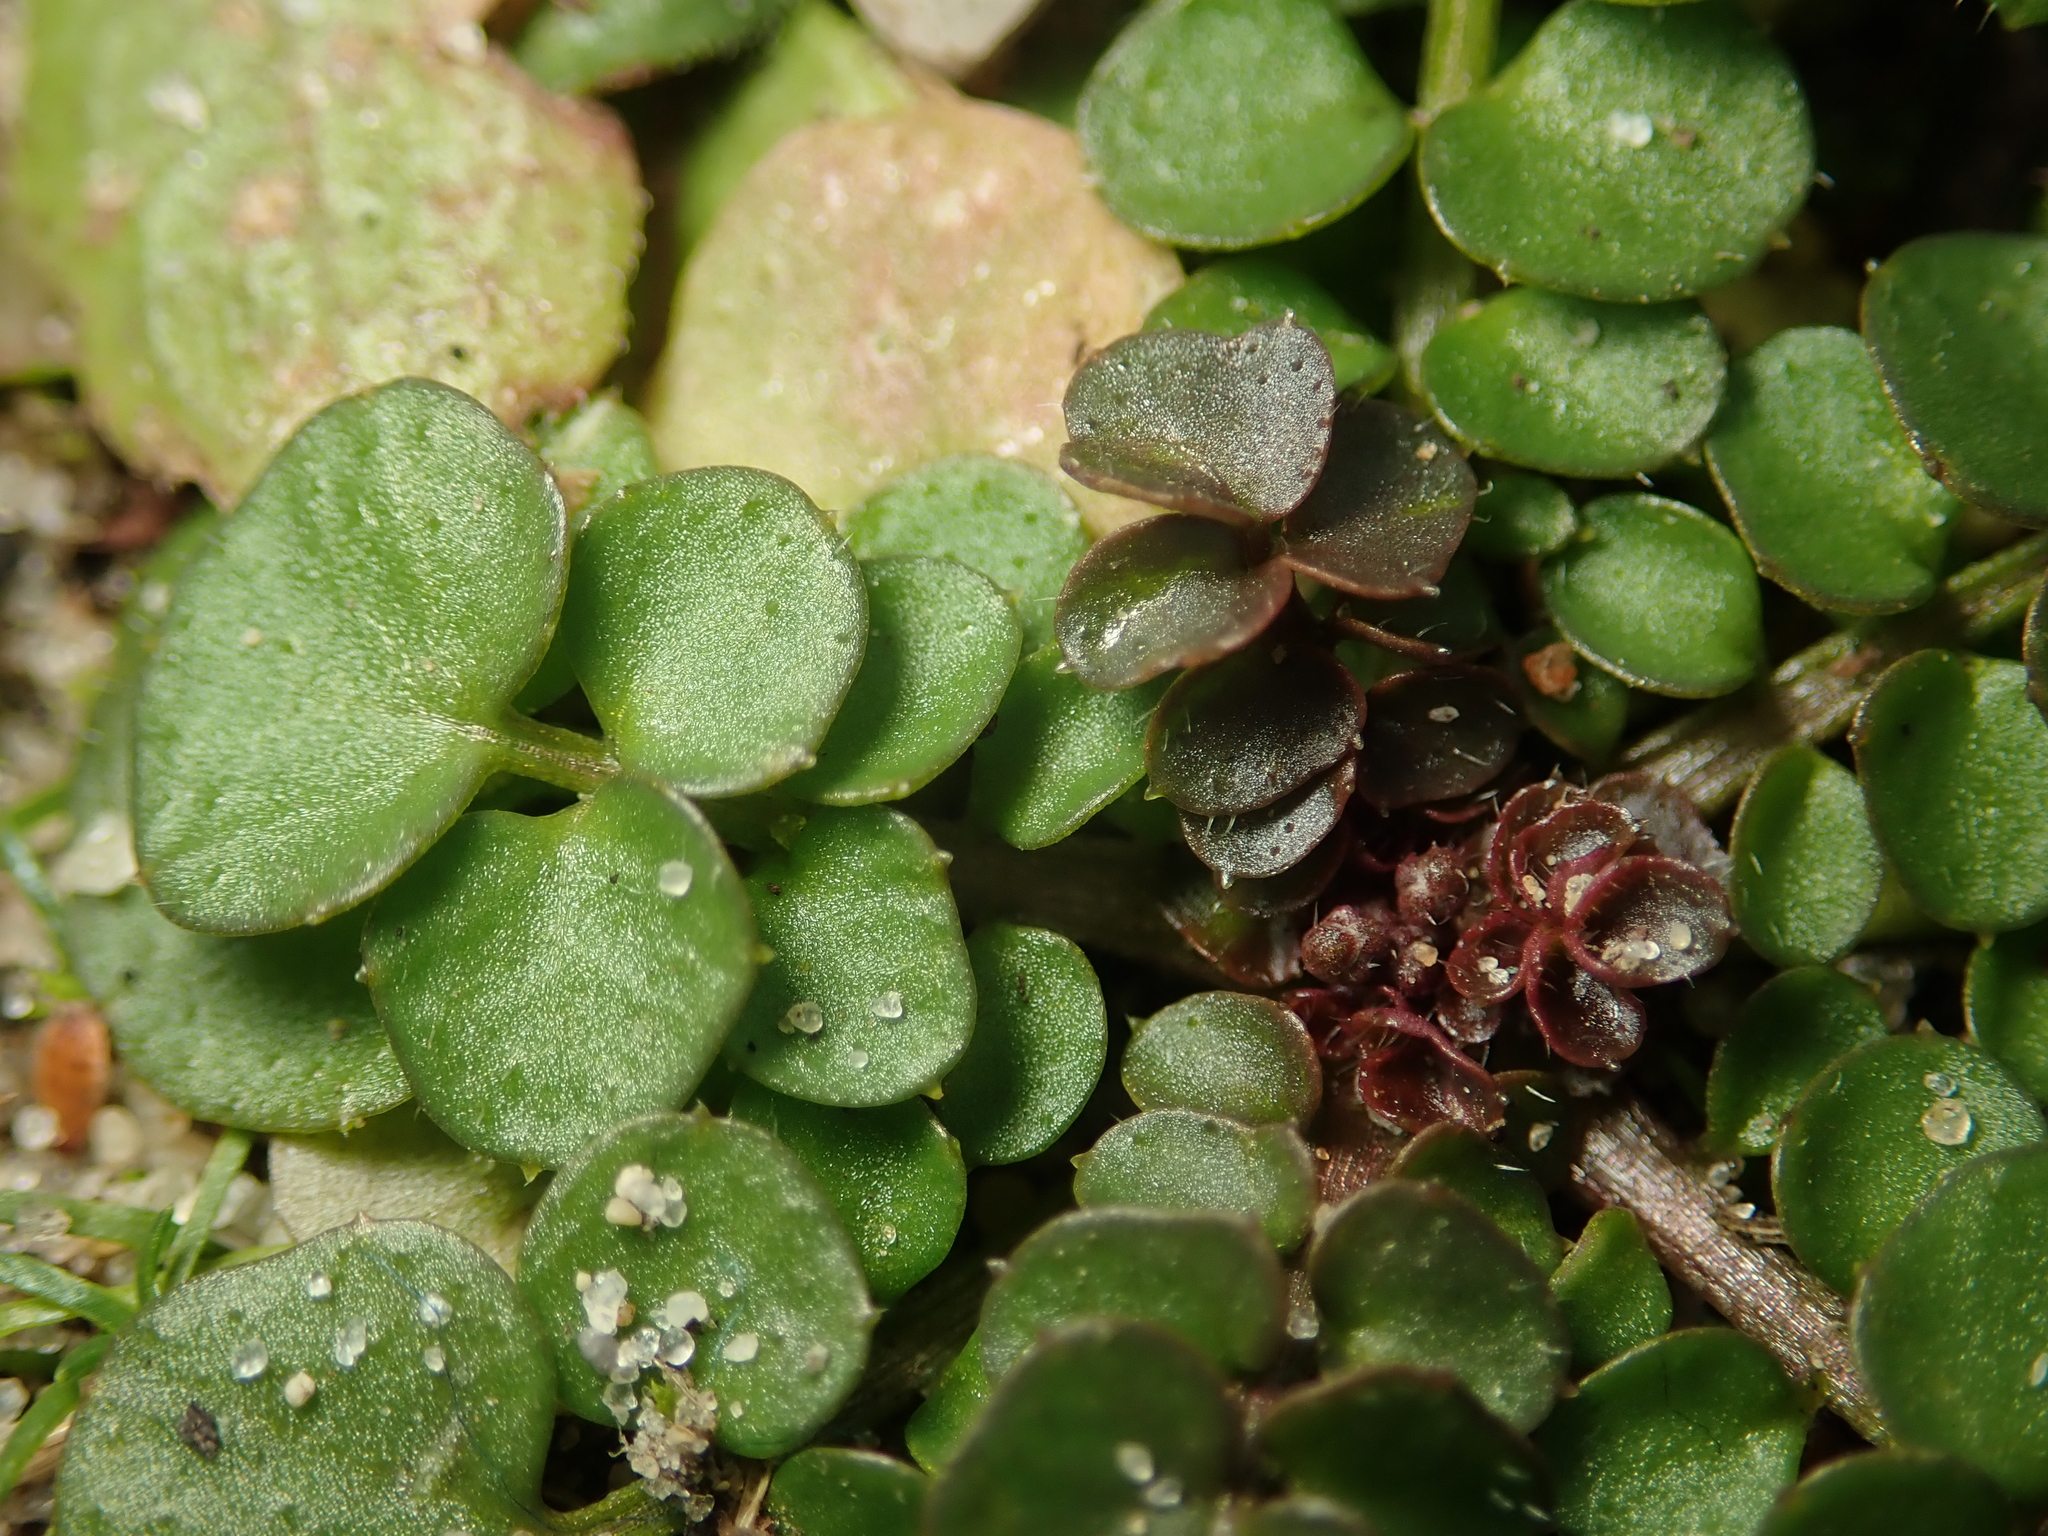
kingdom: Plantae
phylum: Tracheophyta
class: Magnoliopsida
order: Brassicales
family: Brassicaceae
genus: Cardamine
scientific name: Cardamine hirsuta
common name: Hairy bittercress
